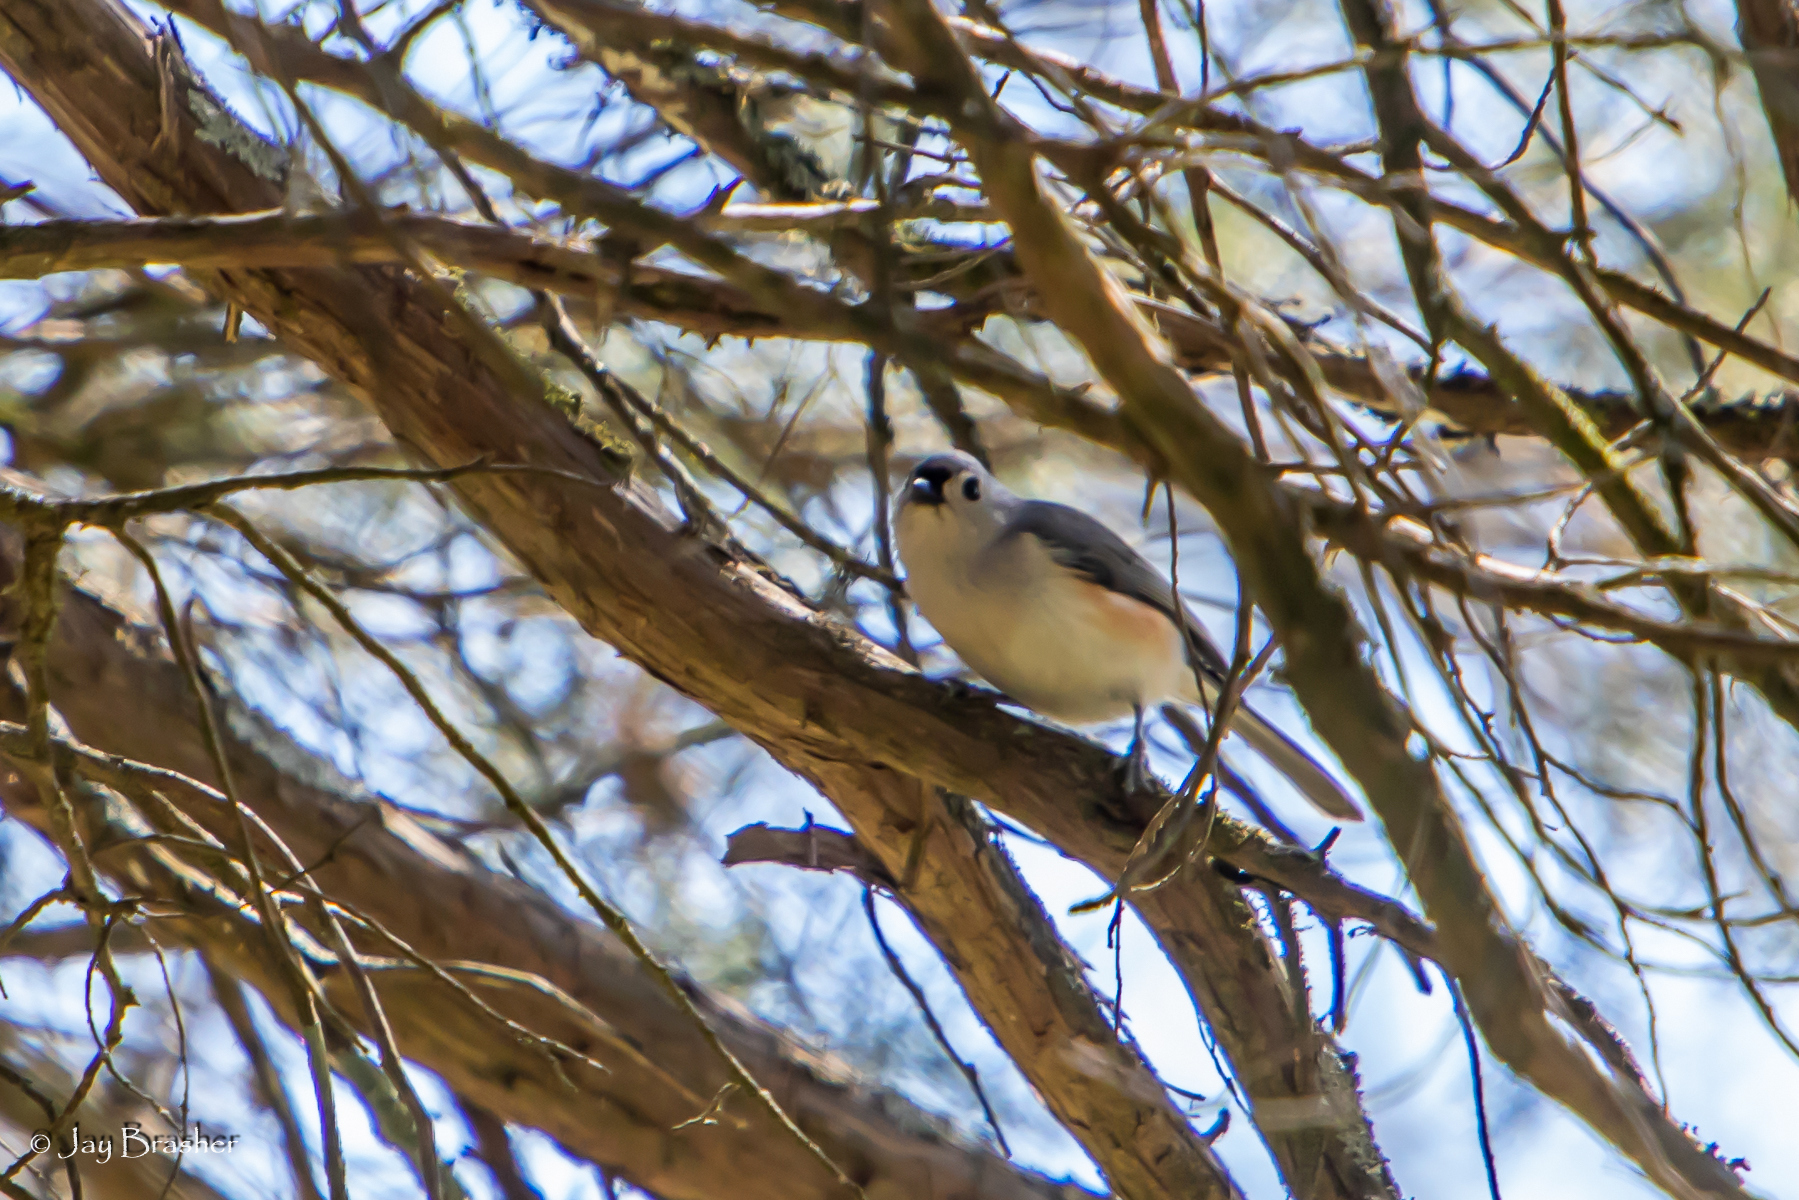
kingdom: Animalia
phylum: Chordata
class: Aves
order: Passeriformes
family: Paridae
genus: Baeolophus
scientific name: Baeolophus bicolor
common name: Tufted titmouse
